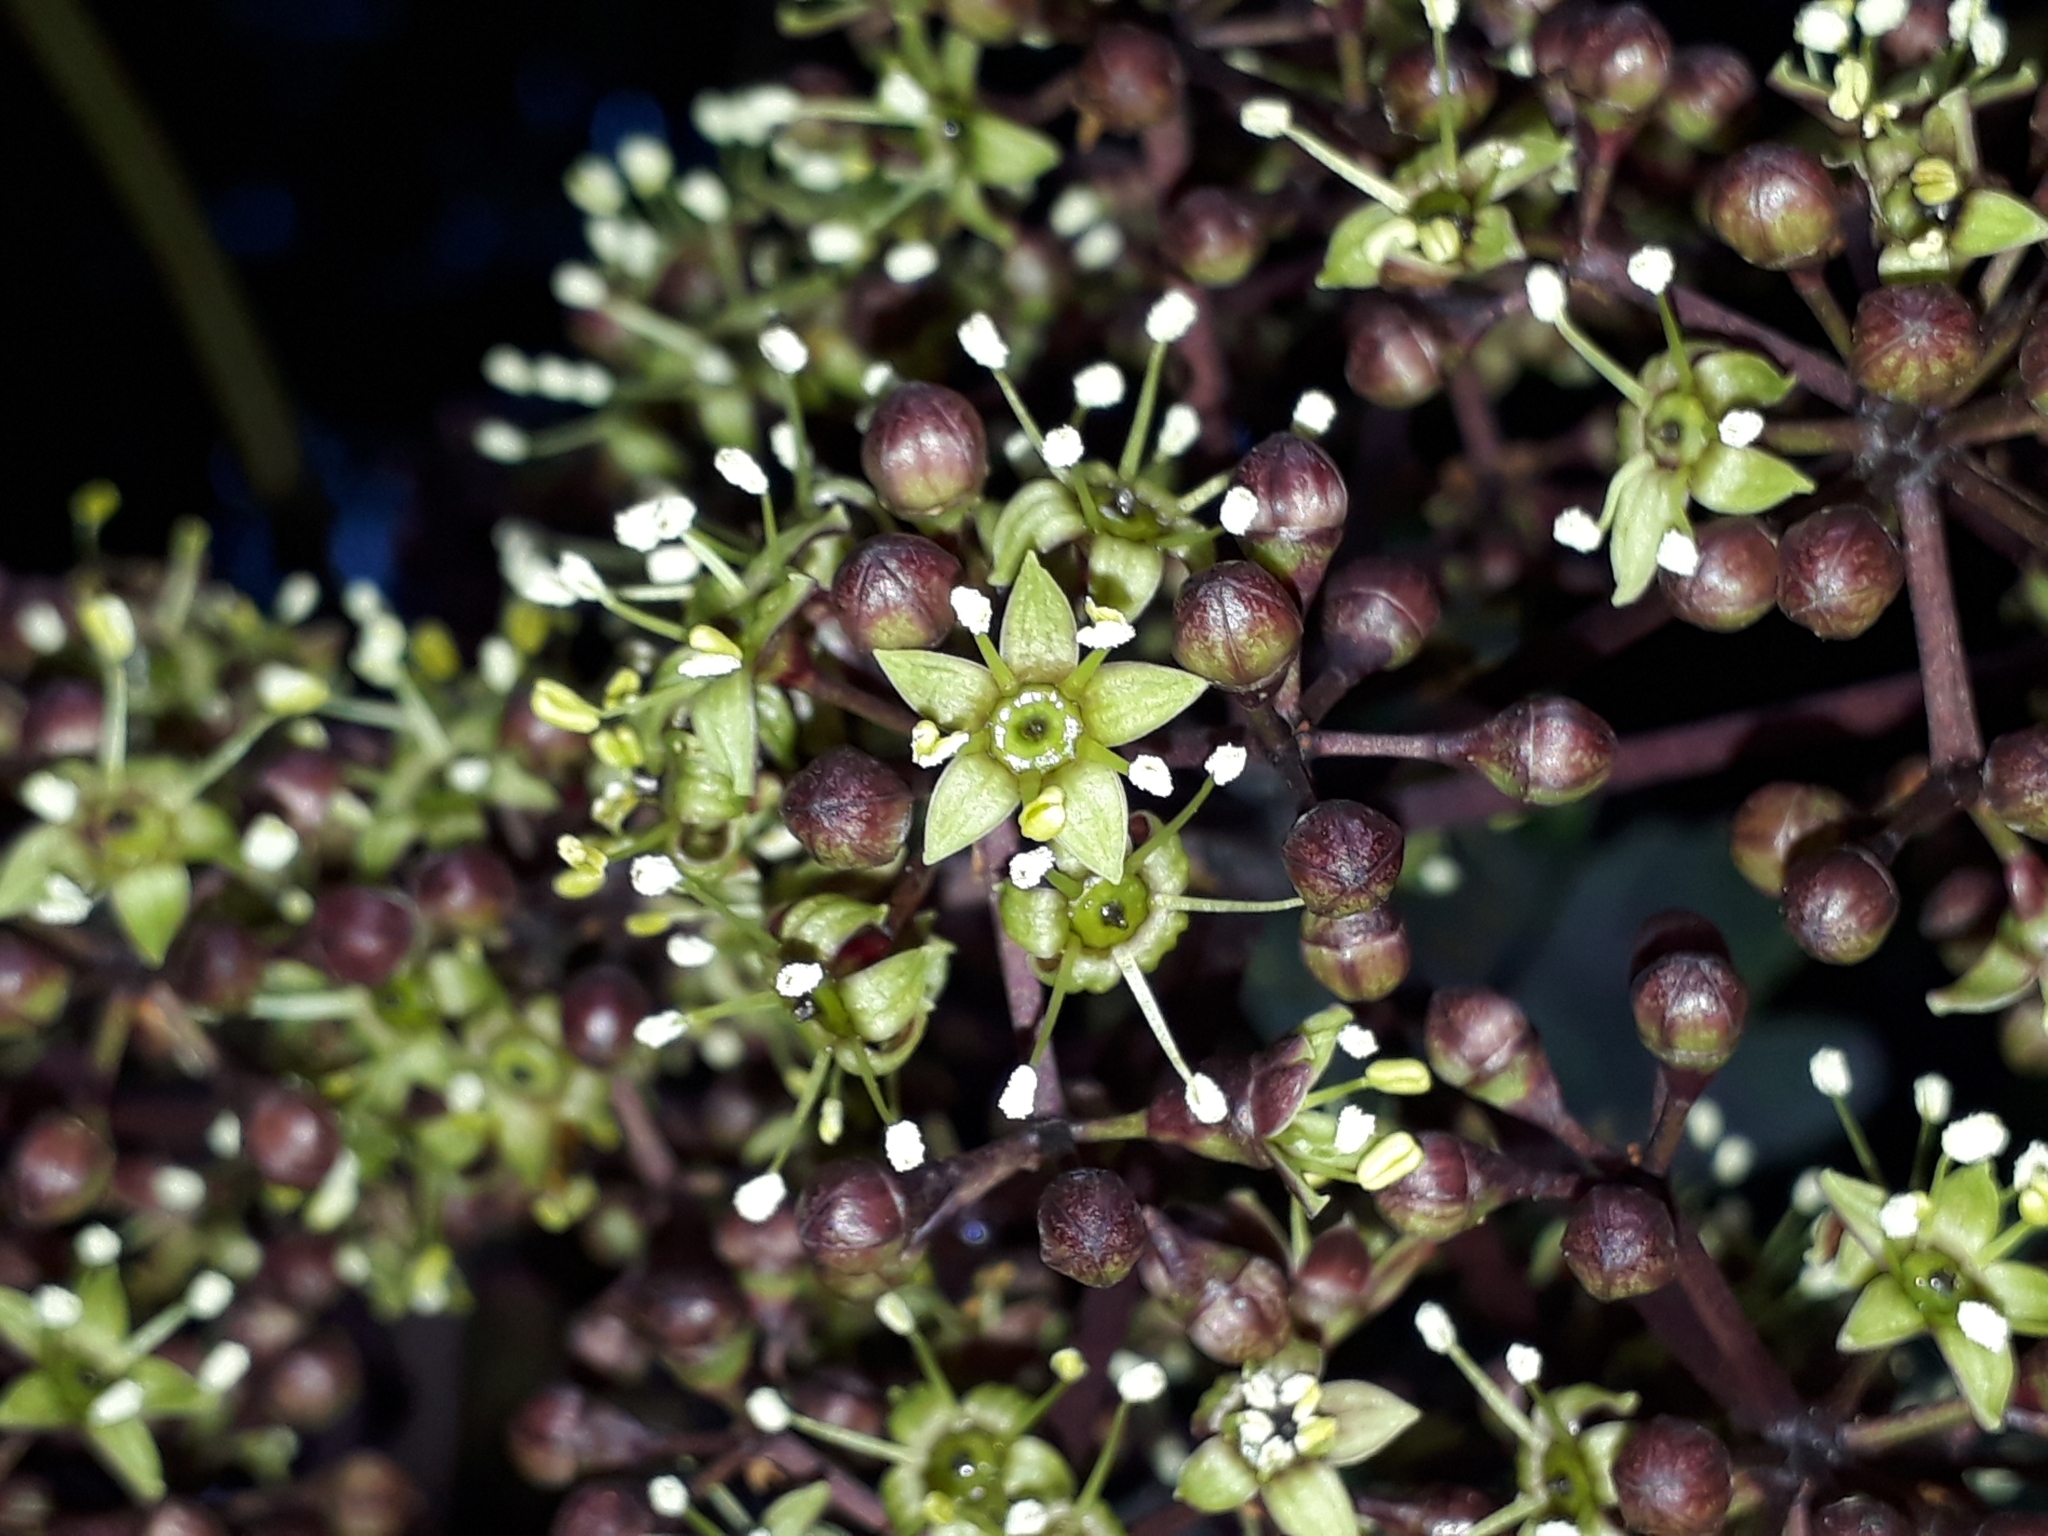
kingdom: Plantae
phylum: Tracheophyta
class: Magnoliopsida
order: Apiales
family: Araliaceae
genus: Neopanax
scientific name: Neopanax arboreus
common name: Five-fingers
